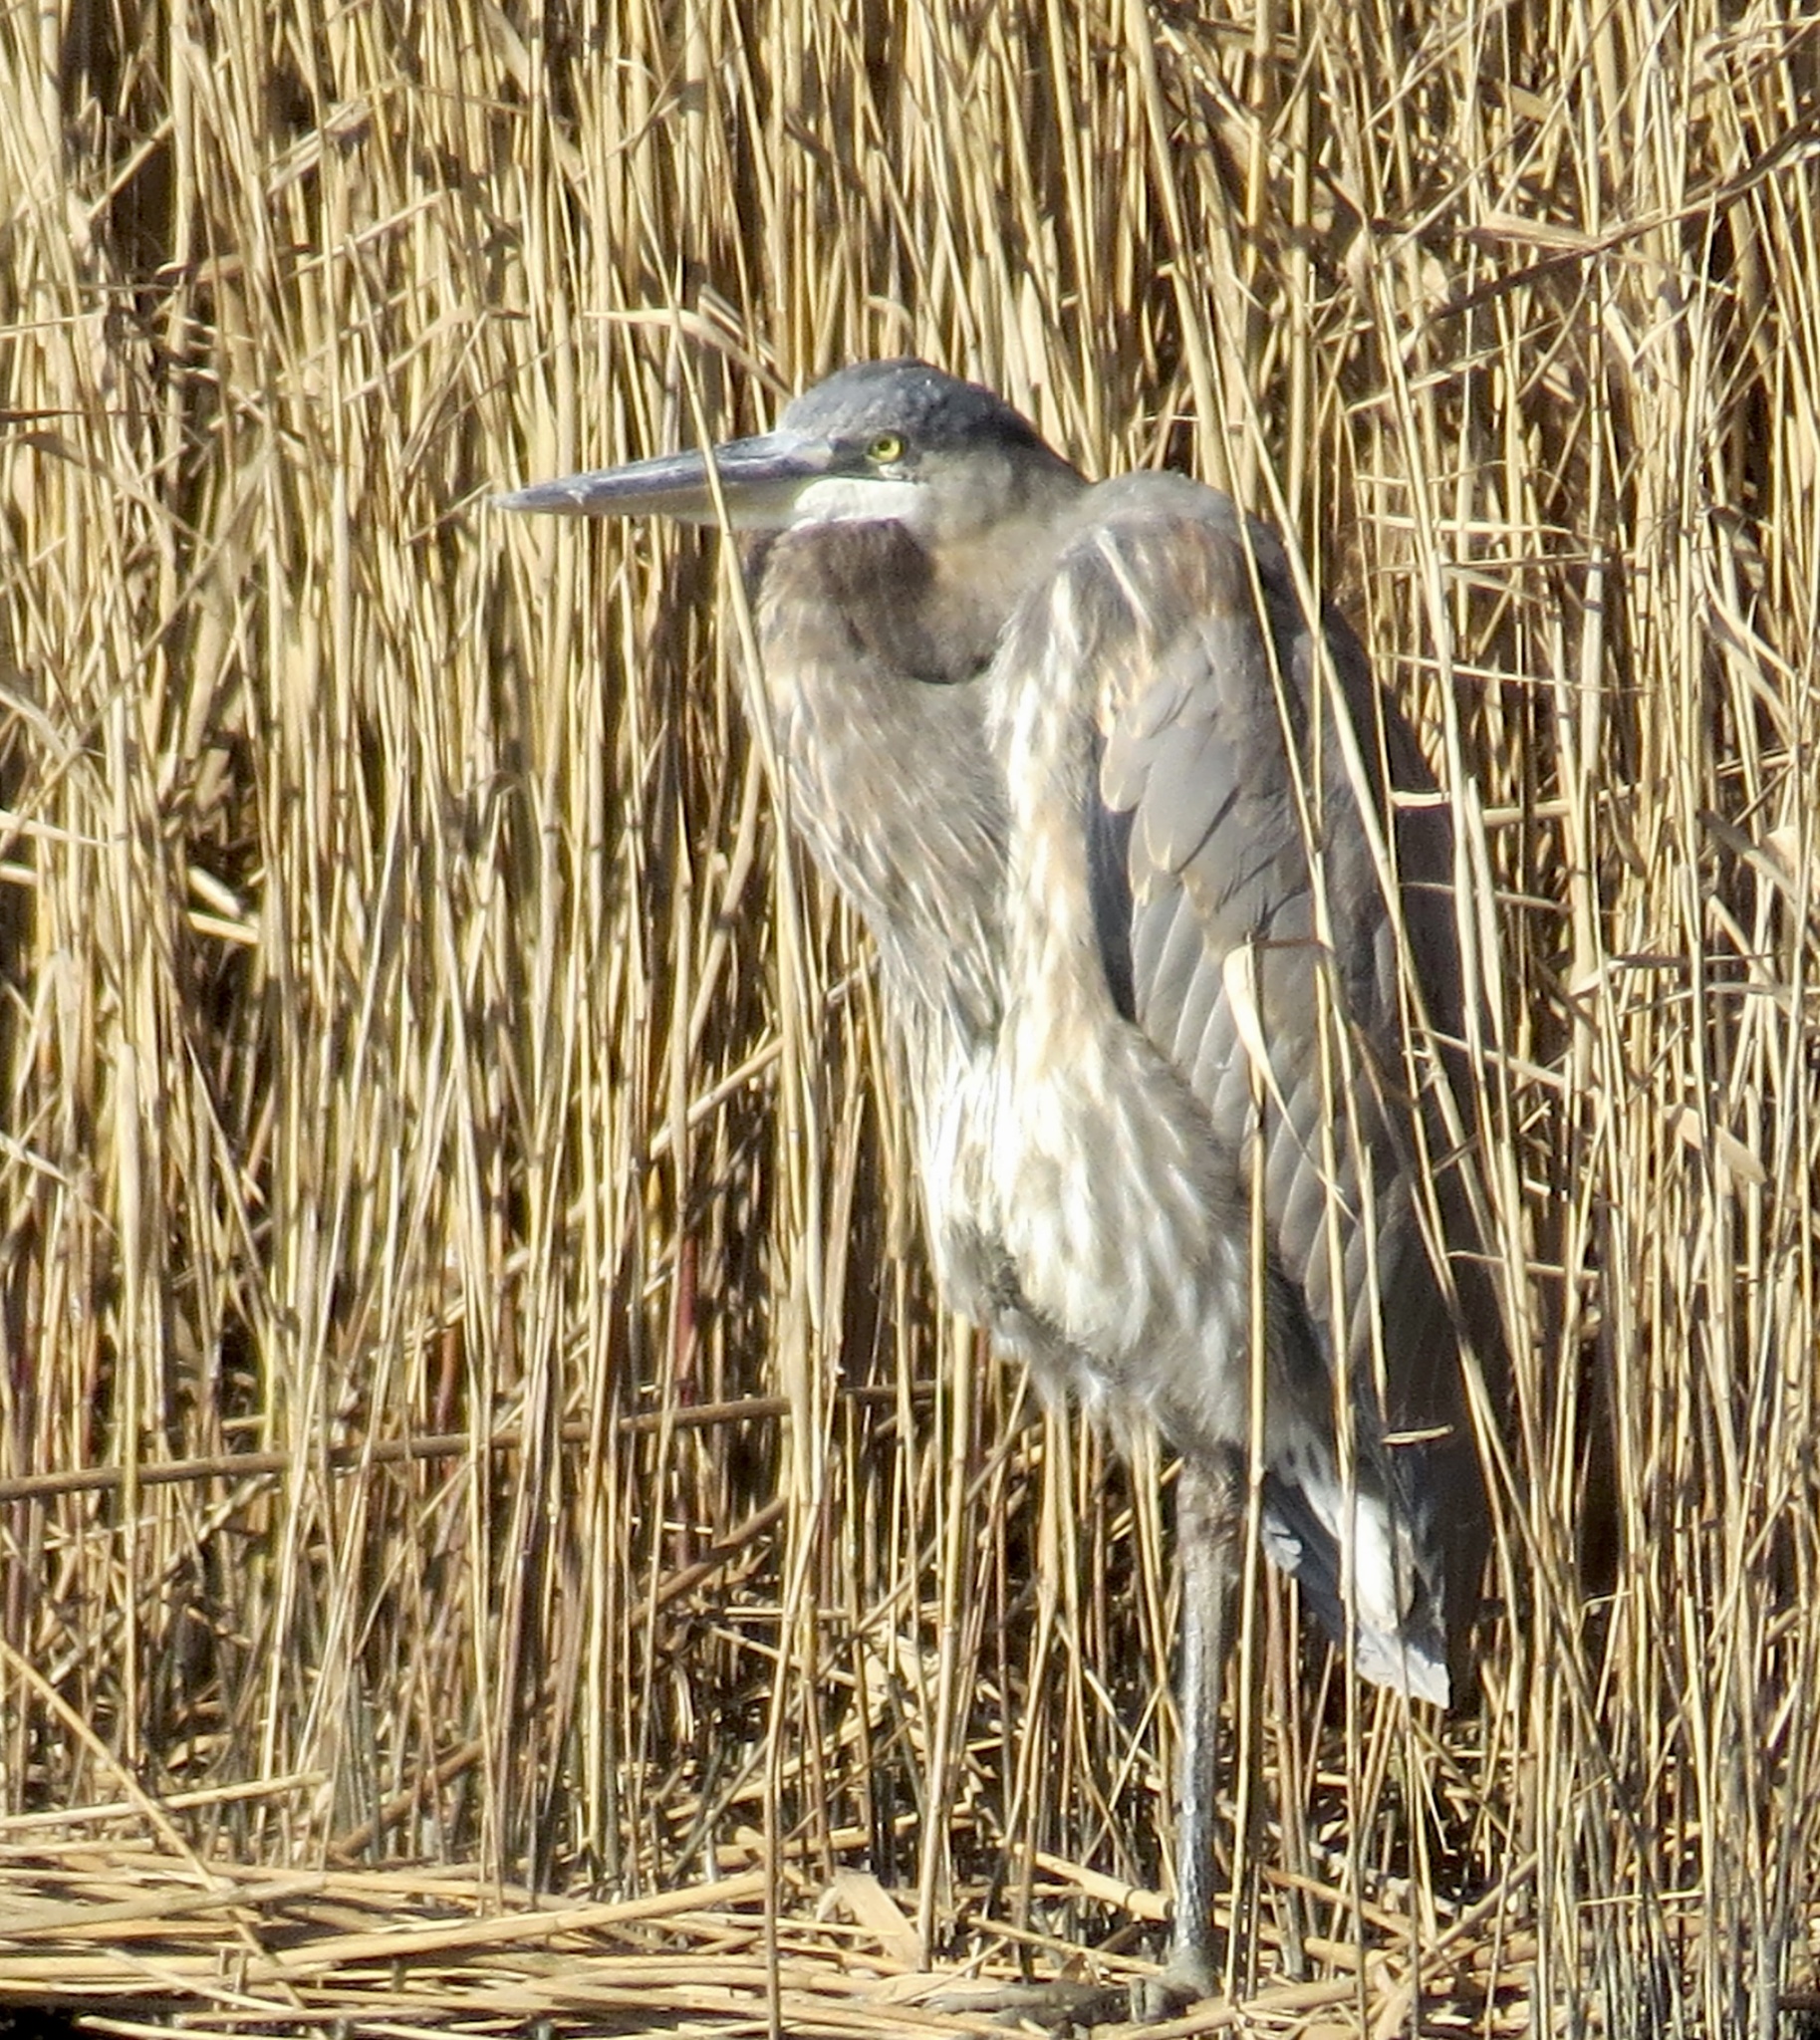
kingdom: Animalia
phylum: Chordata
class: Aves
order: Pelecaniformes
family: Ardeidae
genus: Ardea
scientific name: Ardea herodias
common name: Great blue heron
